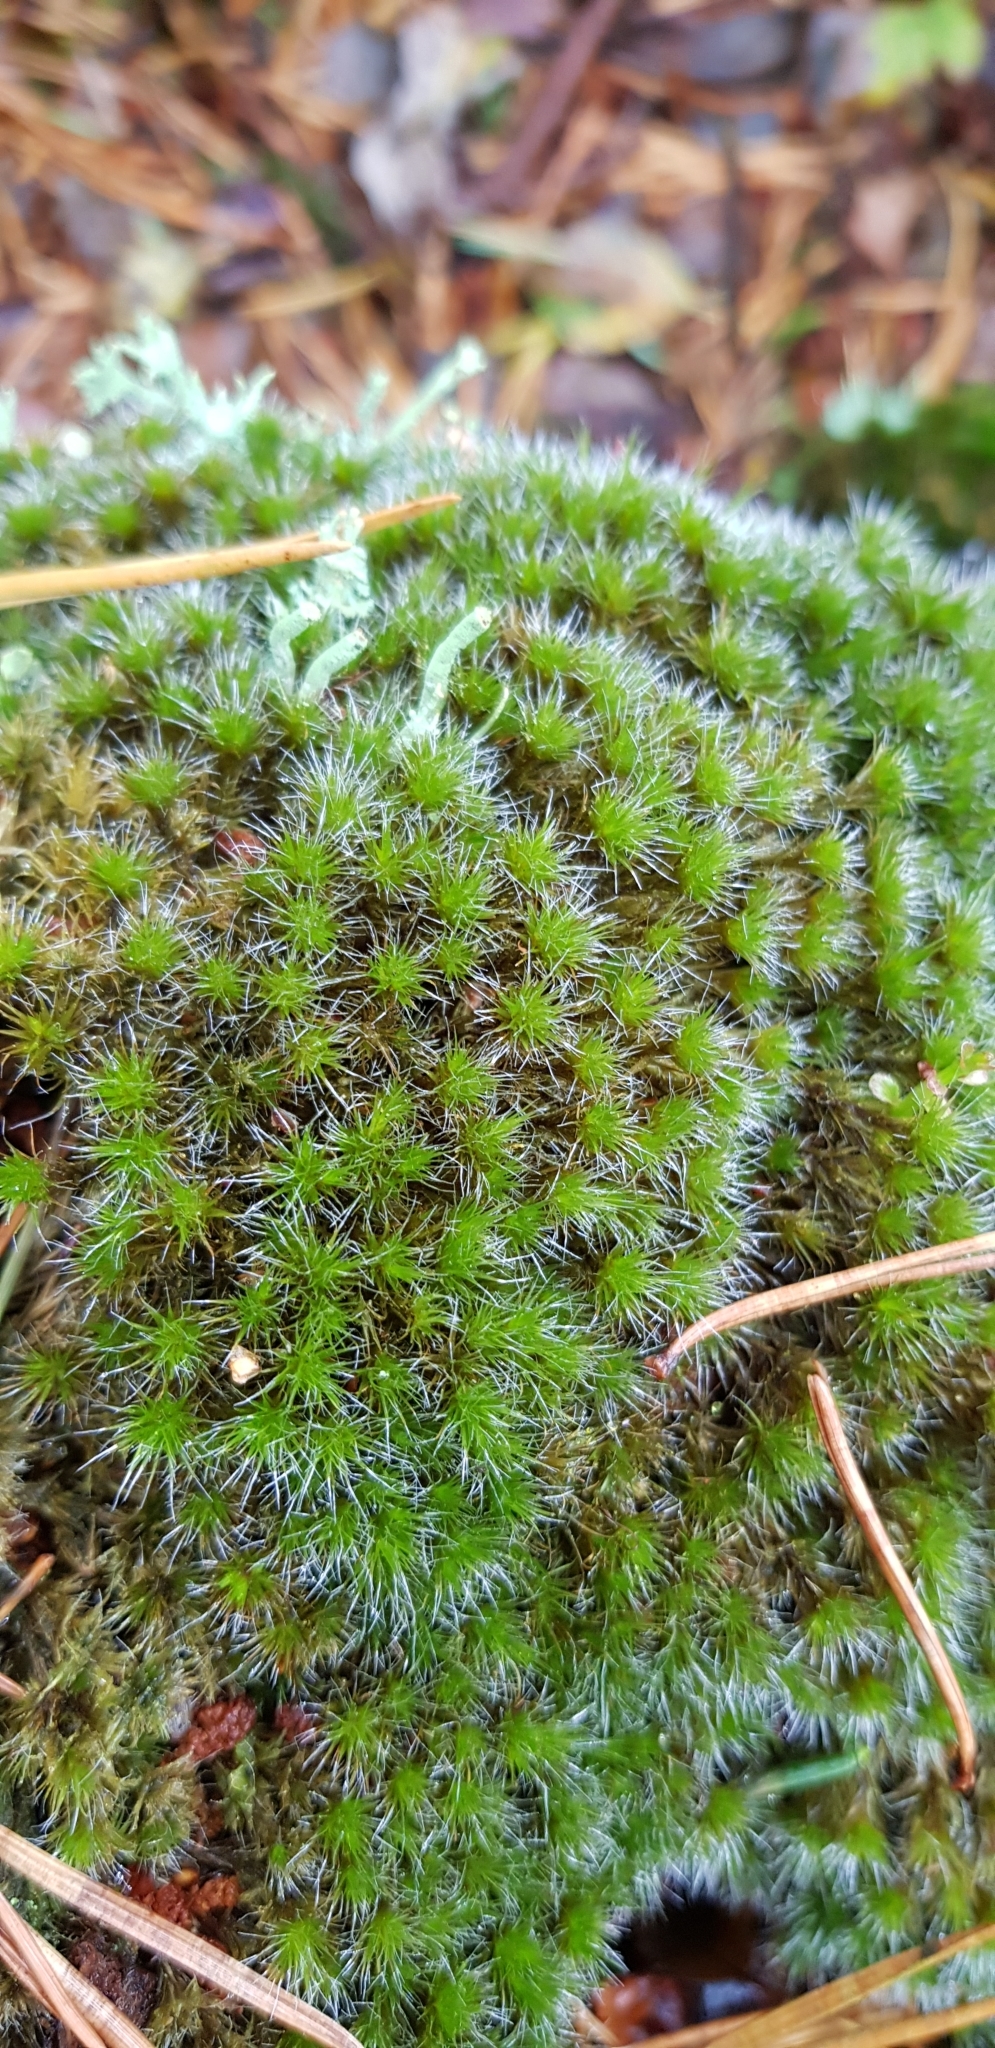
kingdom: Plantae
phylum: Bryophyta
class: Bryopsida
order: Dicranales
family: Leucobryaceae
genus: Campylopus
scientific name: Campylopus introflexus
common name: Heath star moss
